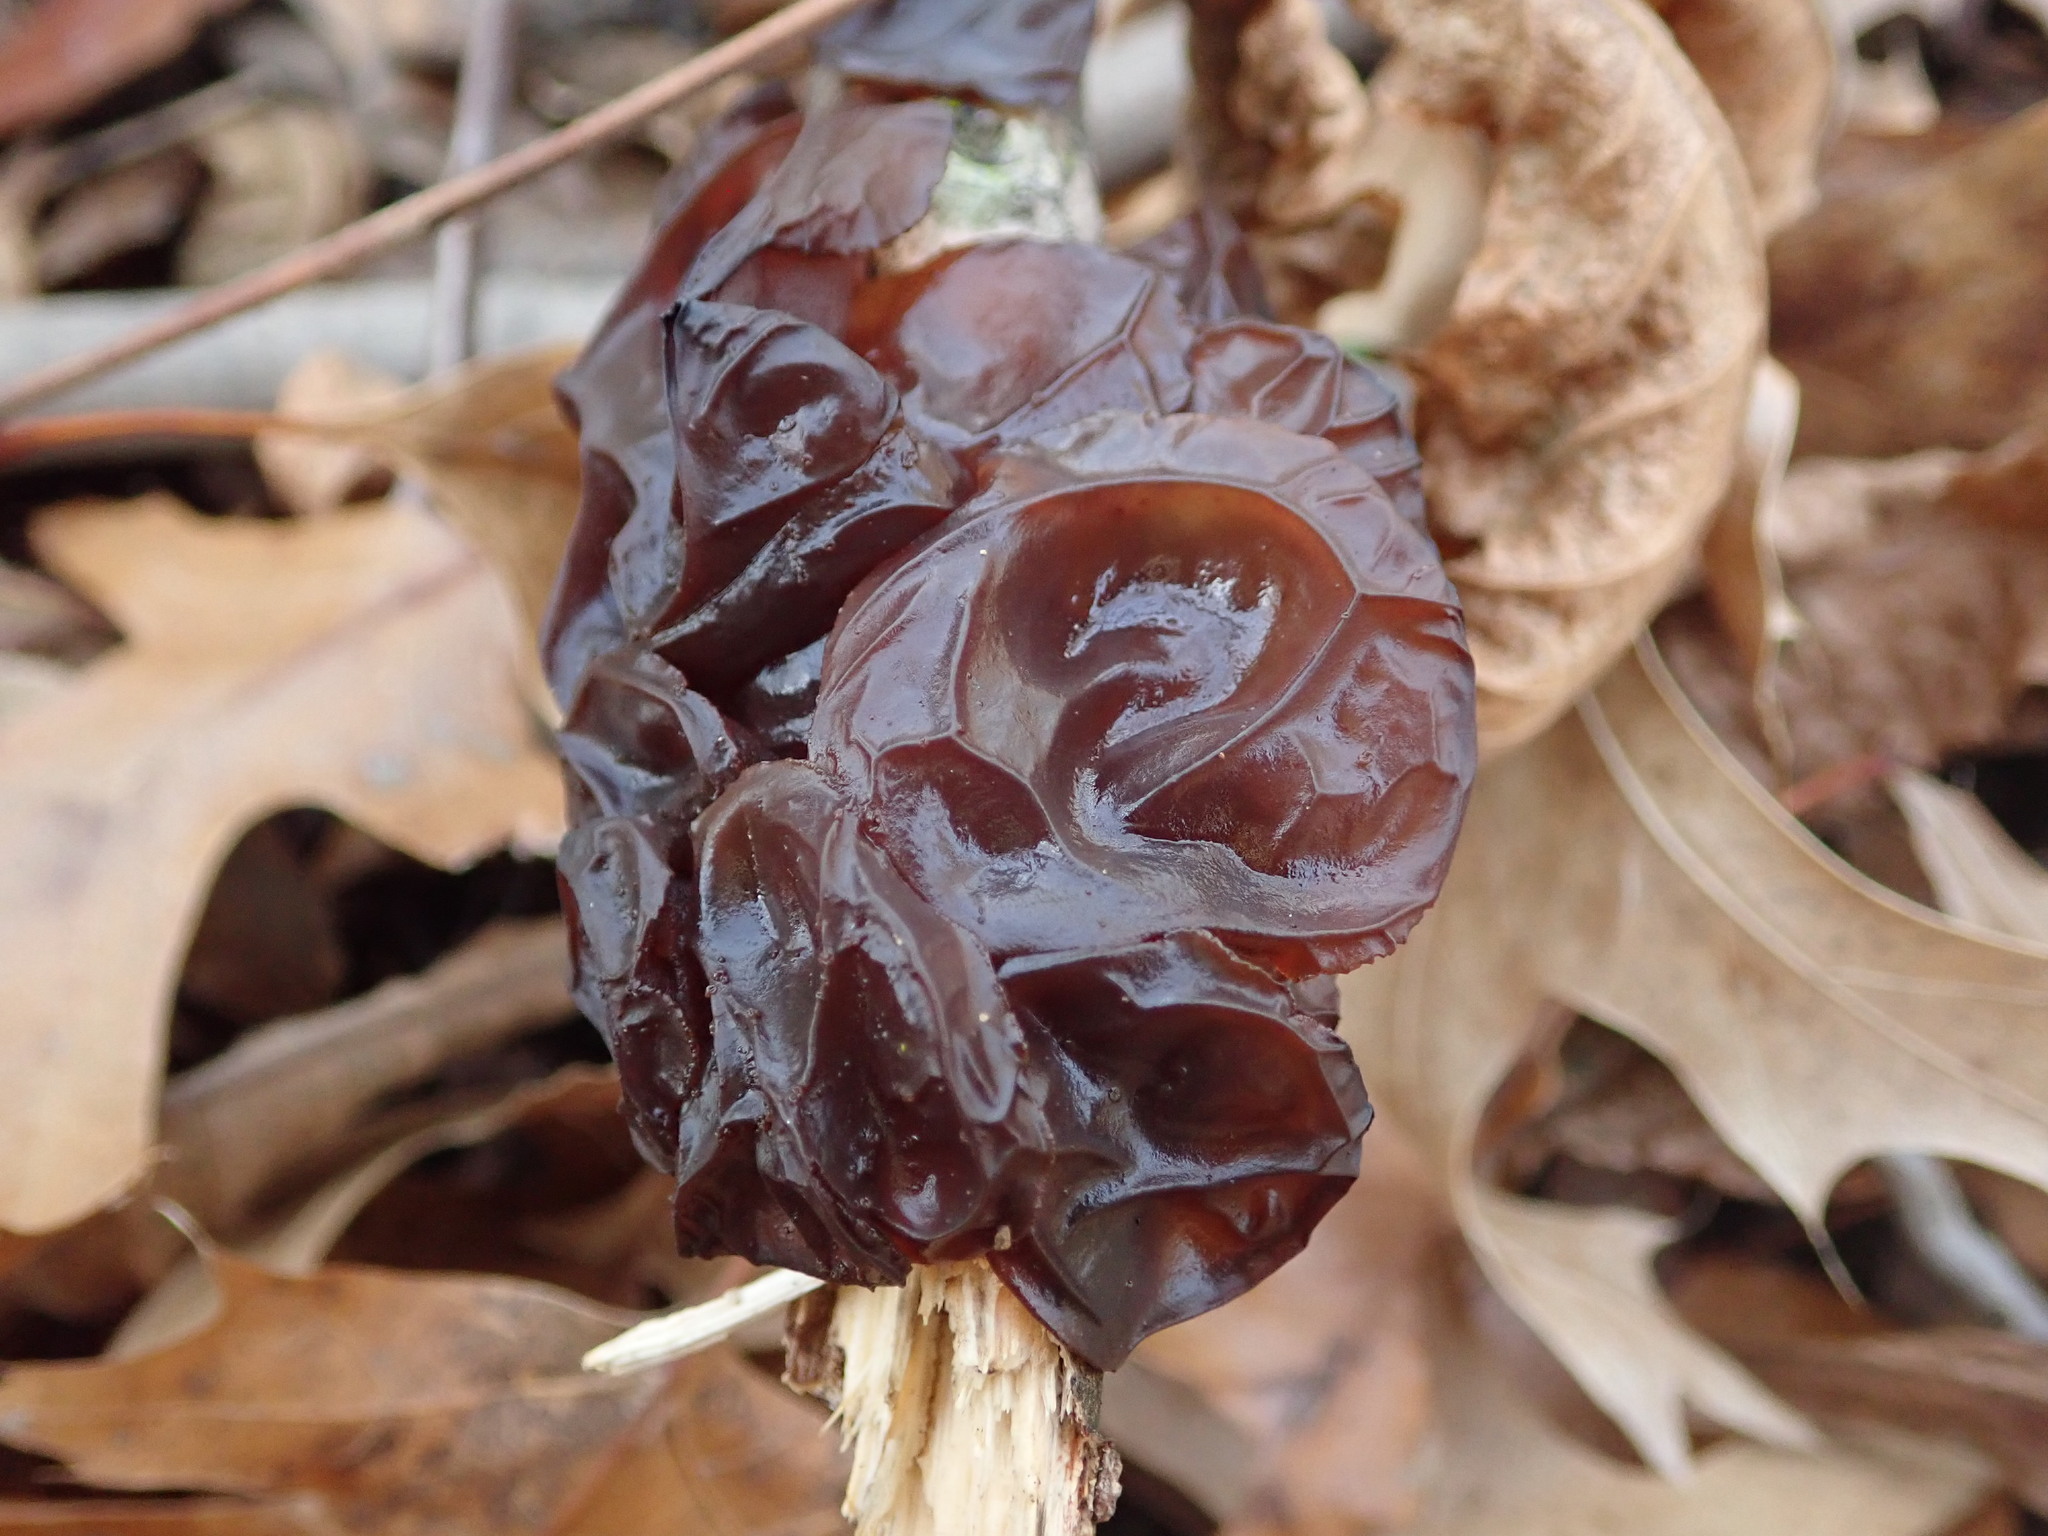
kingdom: Fungi
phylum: Basidiomycota
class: Agaricomycetes
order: Auriculariales
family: Auriculariaceae
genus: Exidia
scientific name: Exidia
